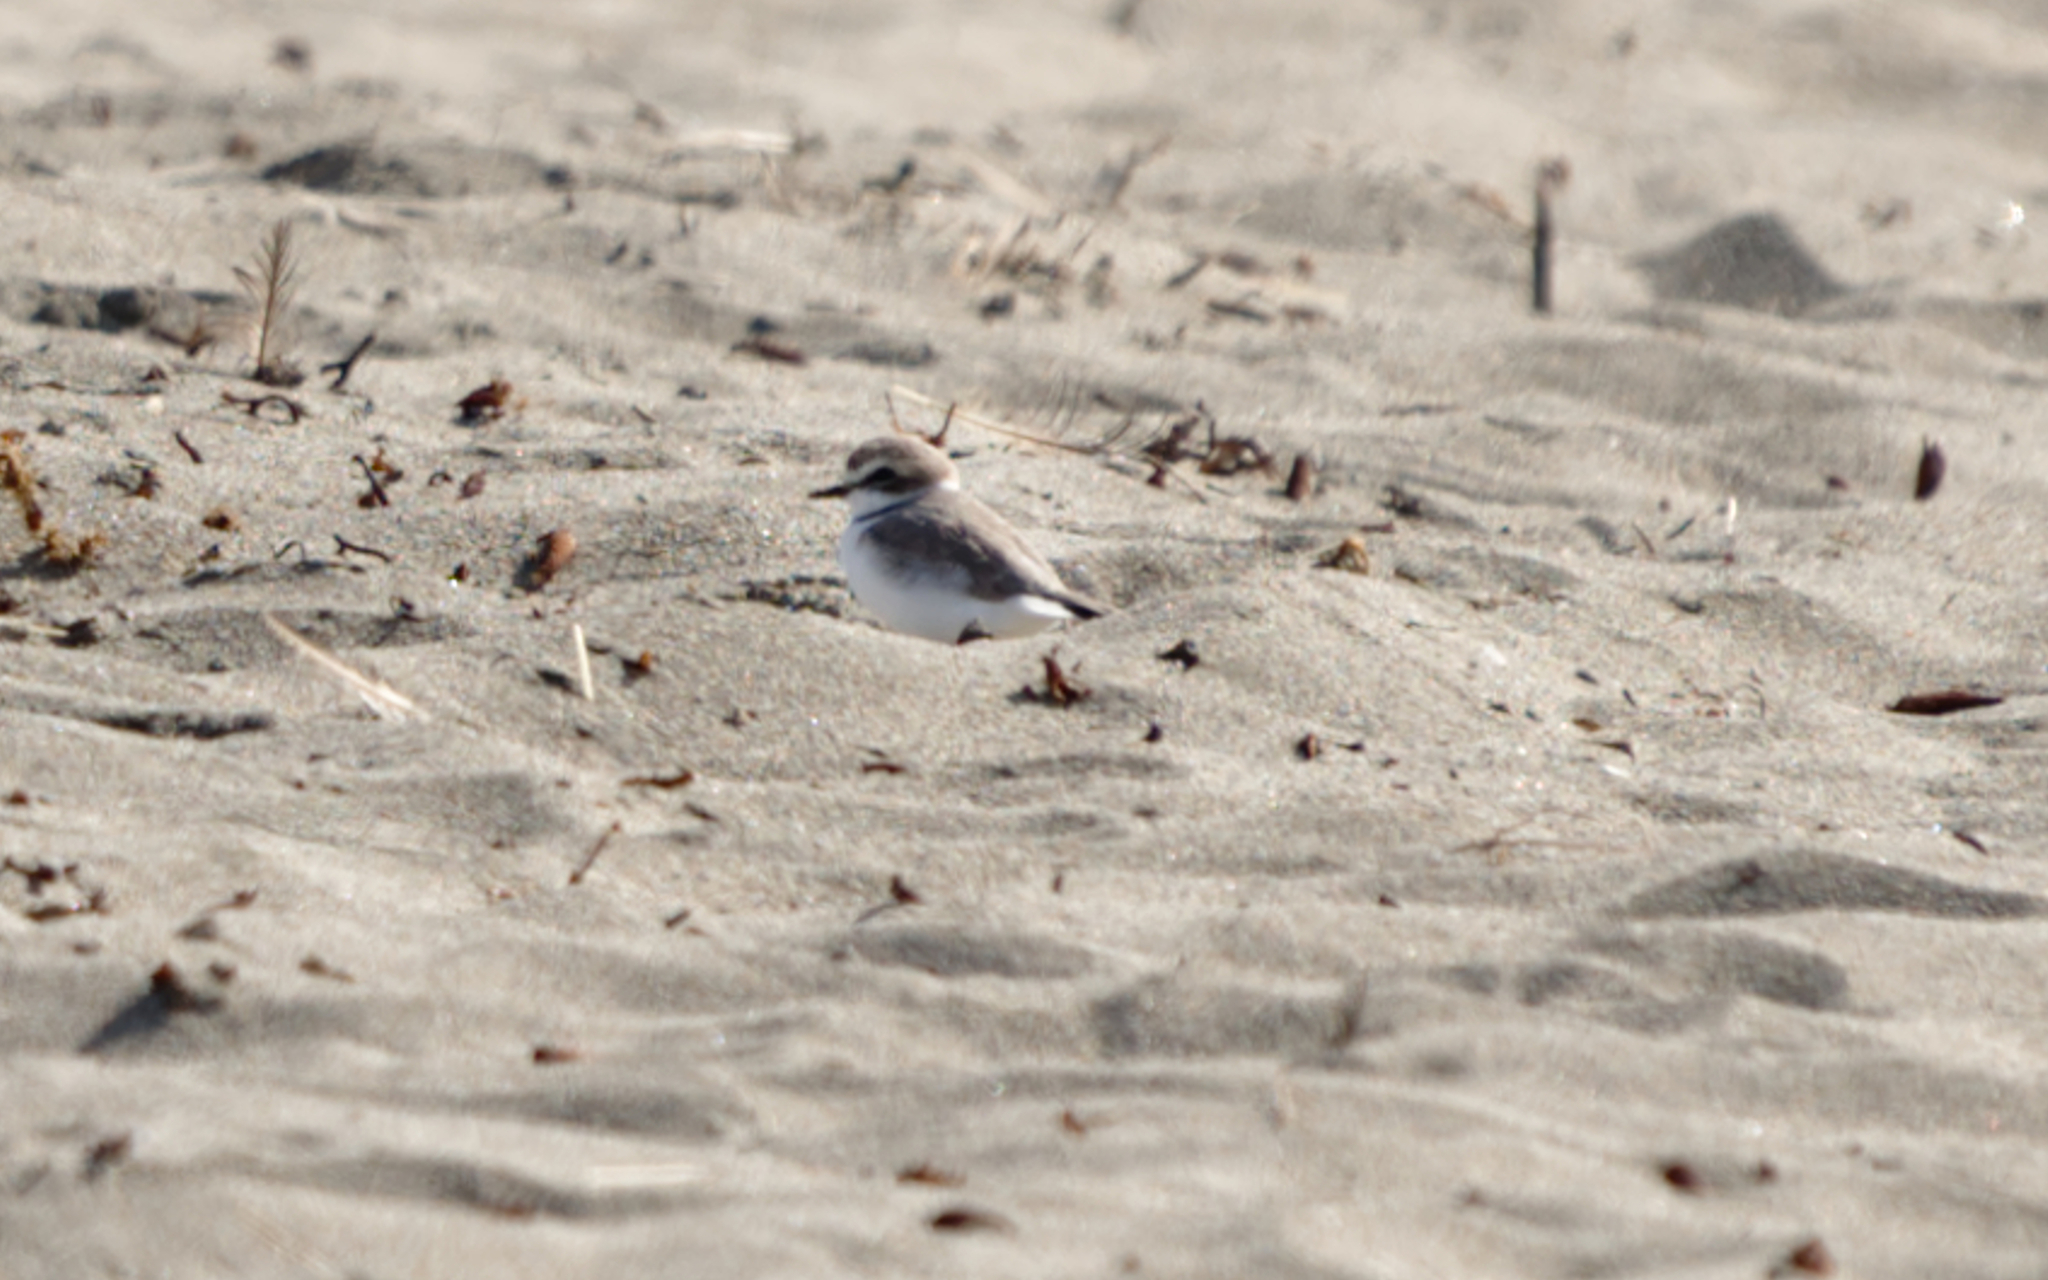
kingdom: Animalia
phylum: Chordata
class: Aves
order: Charadriiformes
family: Charadriidae
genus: Anarhynchus
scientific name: Anarhynchus
